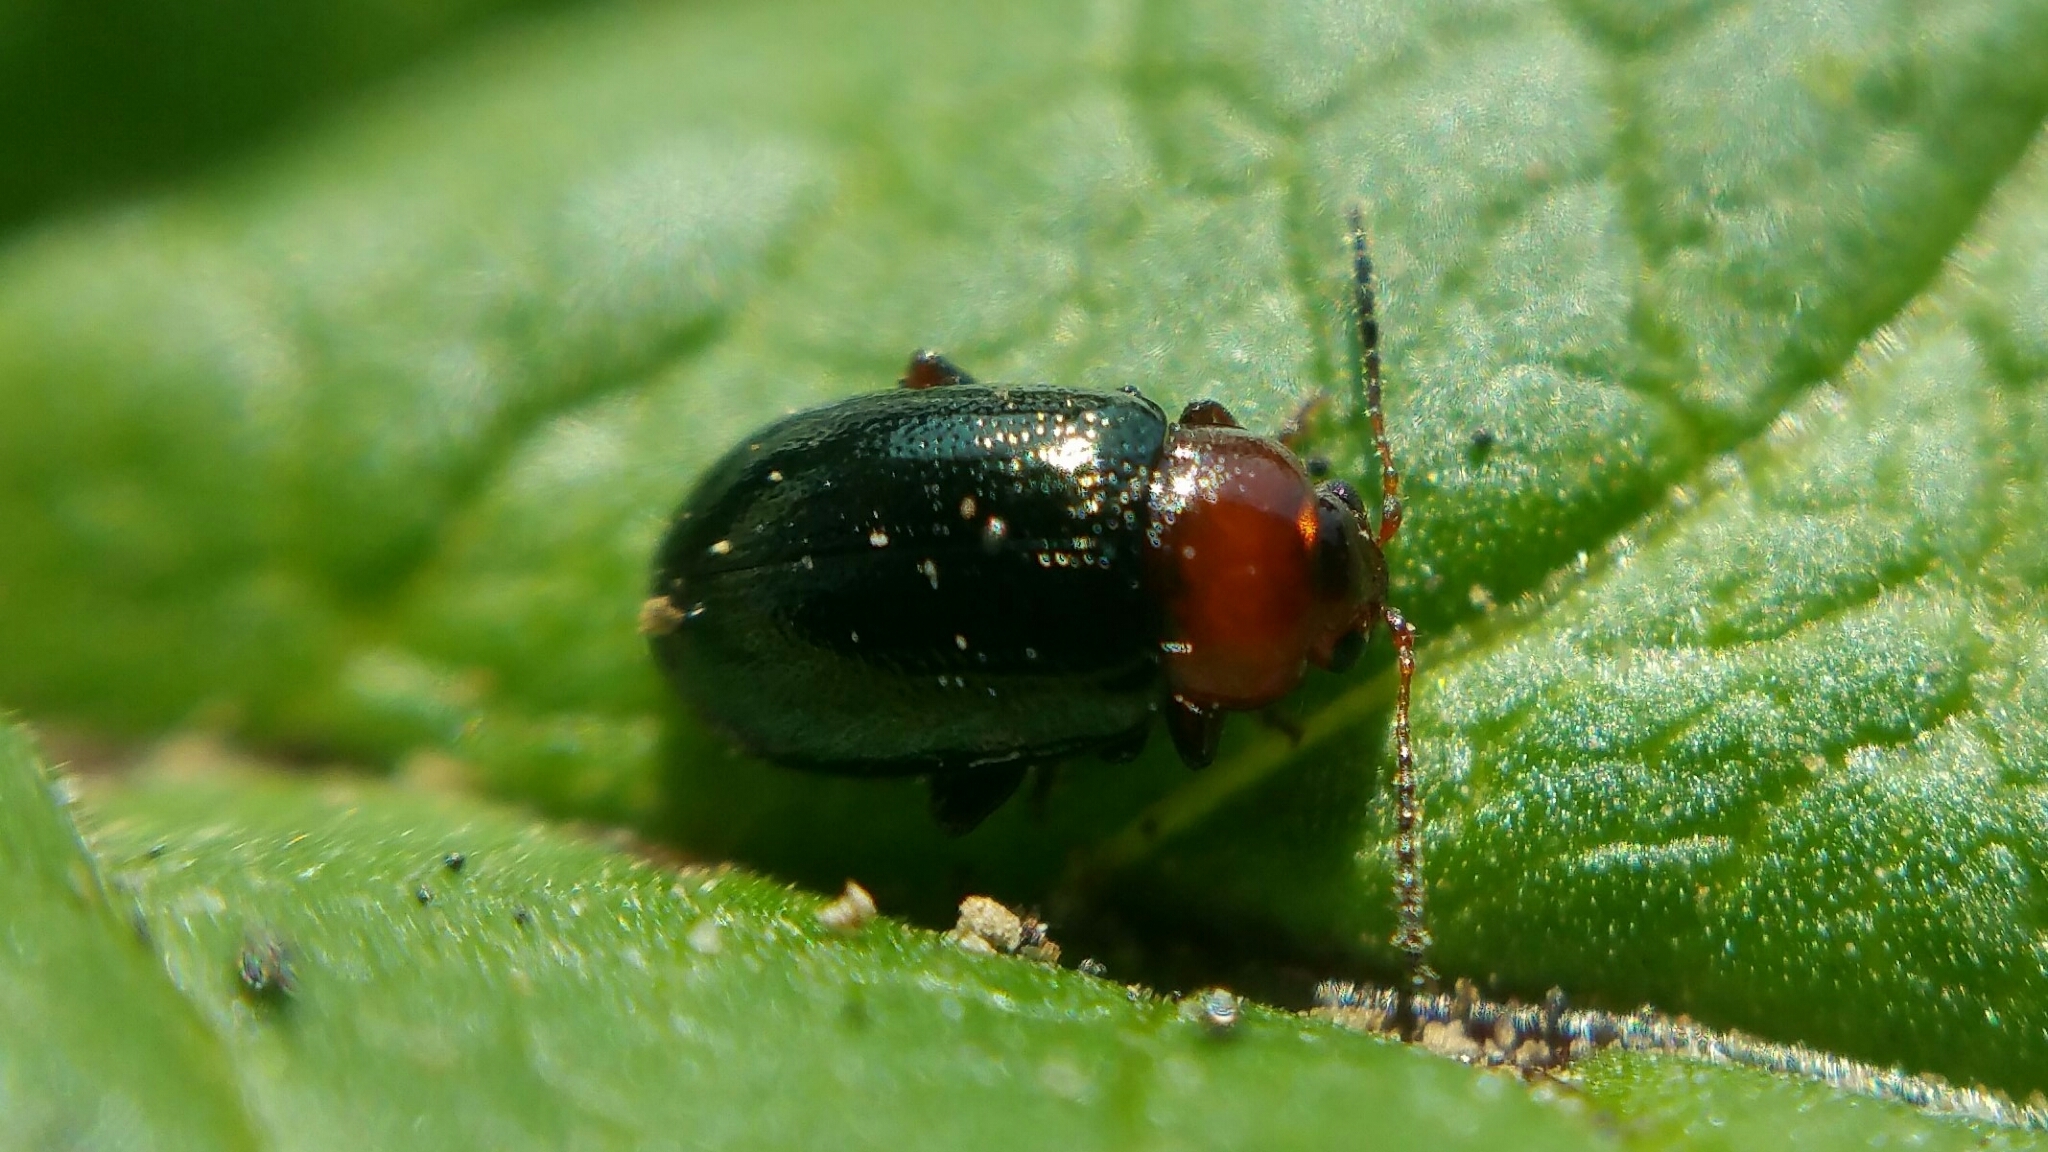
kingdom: Animalia
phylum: Arthropoda
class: Insecta
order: Coleoptera
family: Chrysomelidae
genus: Podagrica
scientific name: Podagrica malvae
